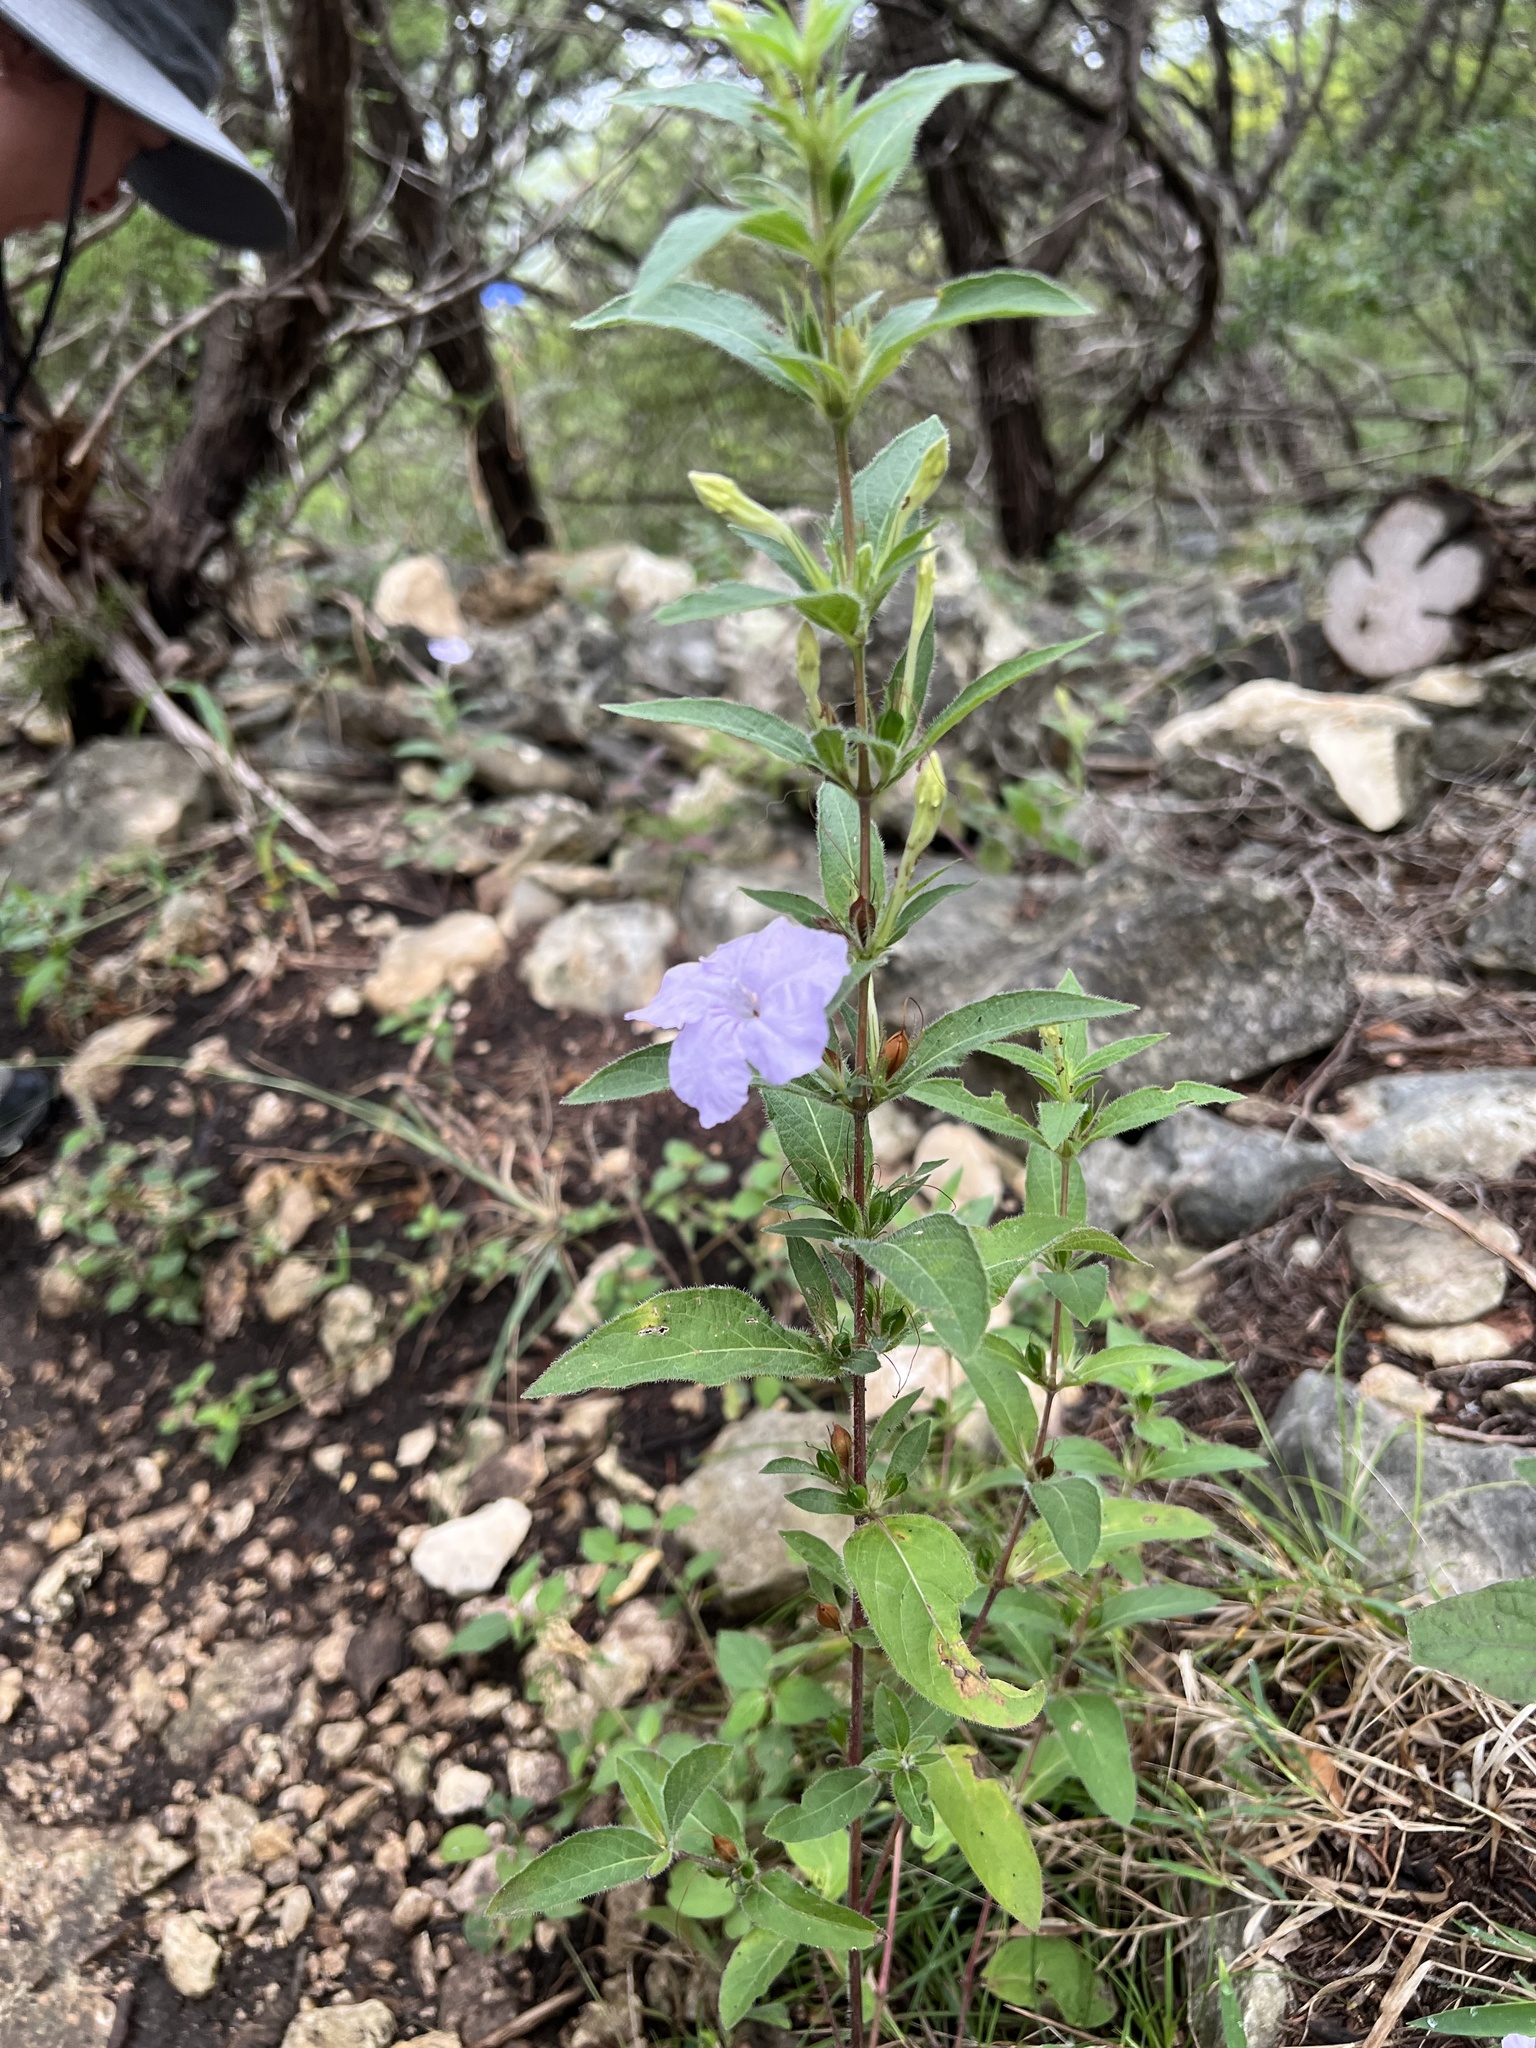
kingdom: Plantae
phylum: Tracheophyta
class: Magnoliopsida
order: Lamiales
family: Acanthaceae
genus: Ruellia
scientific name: Ruellia humilis
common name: Fringe-leaf ruellia
